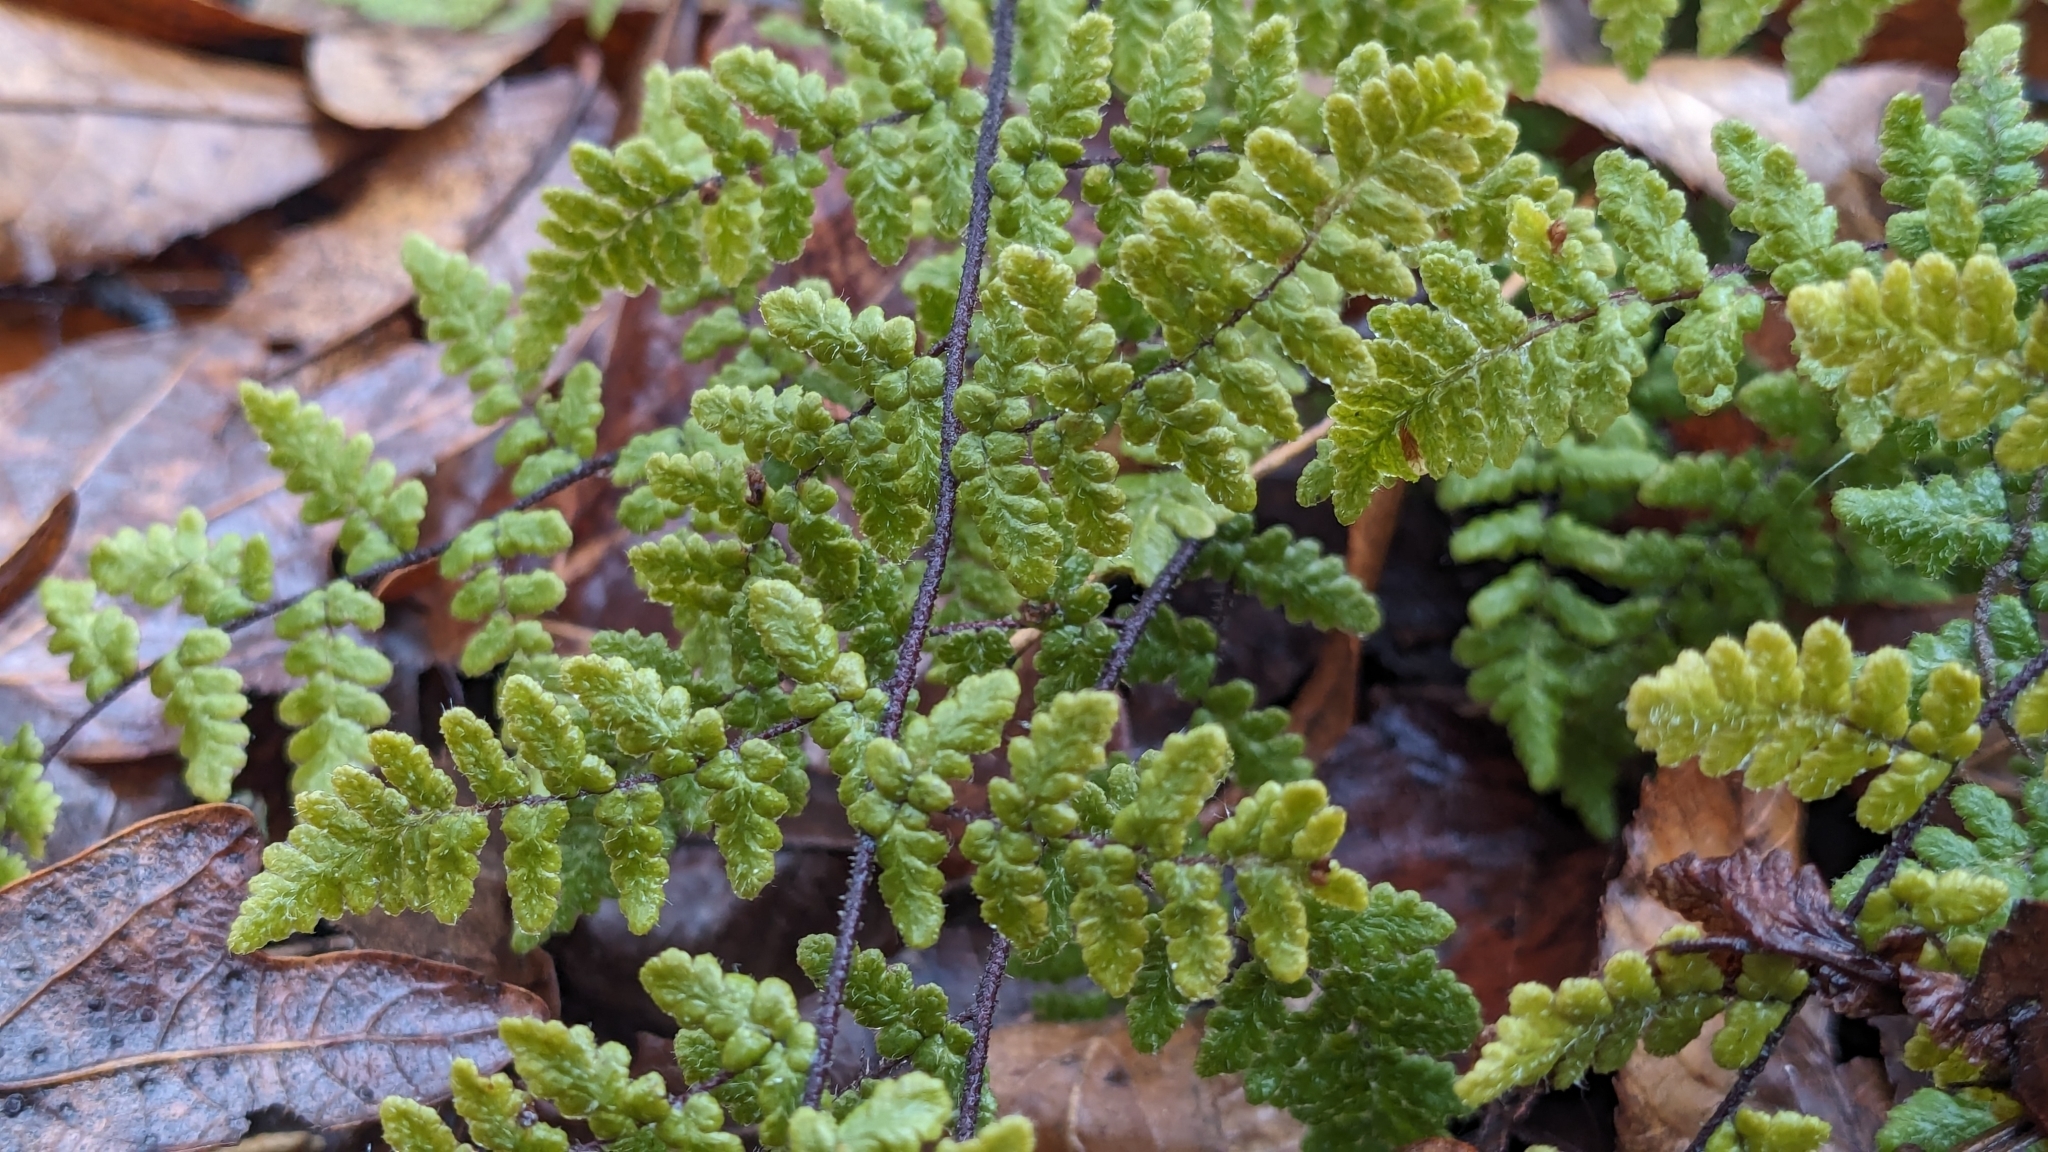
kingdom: Plantae
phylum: Tracheophyta
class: Polypodiopsida
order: Polypodiales
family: Pteridaceae
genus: Myriopteris
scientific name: Myriopteris lanosa
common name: Hairy lip fern
